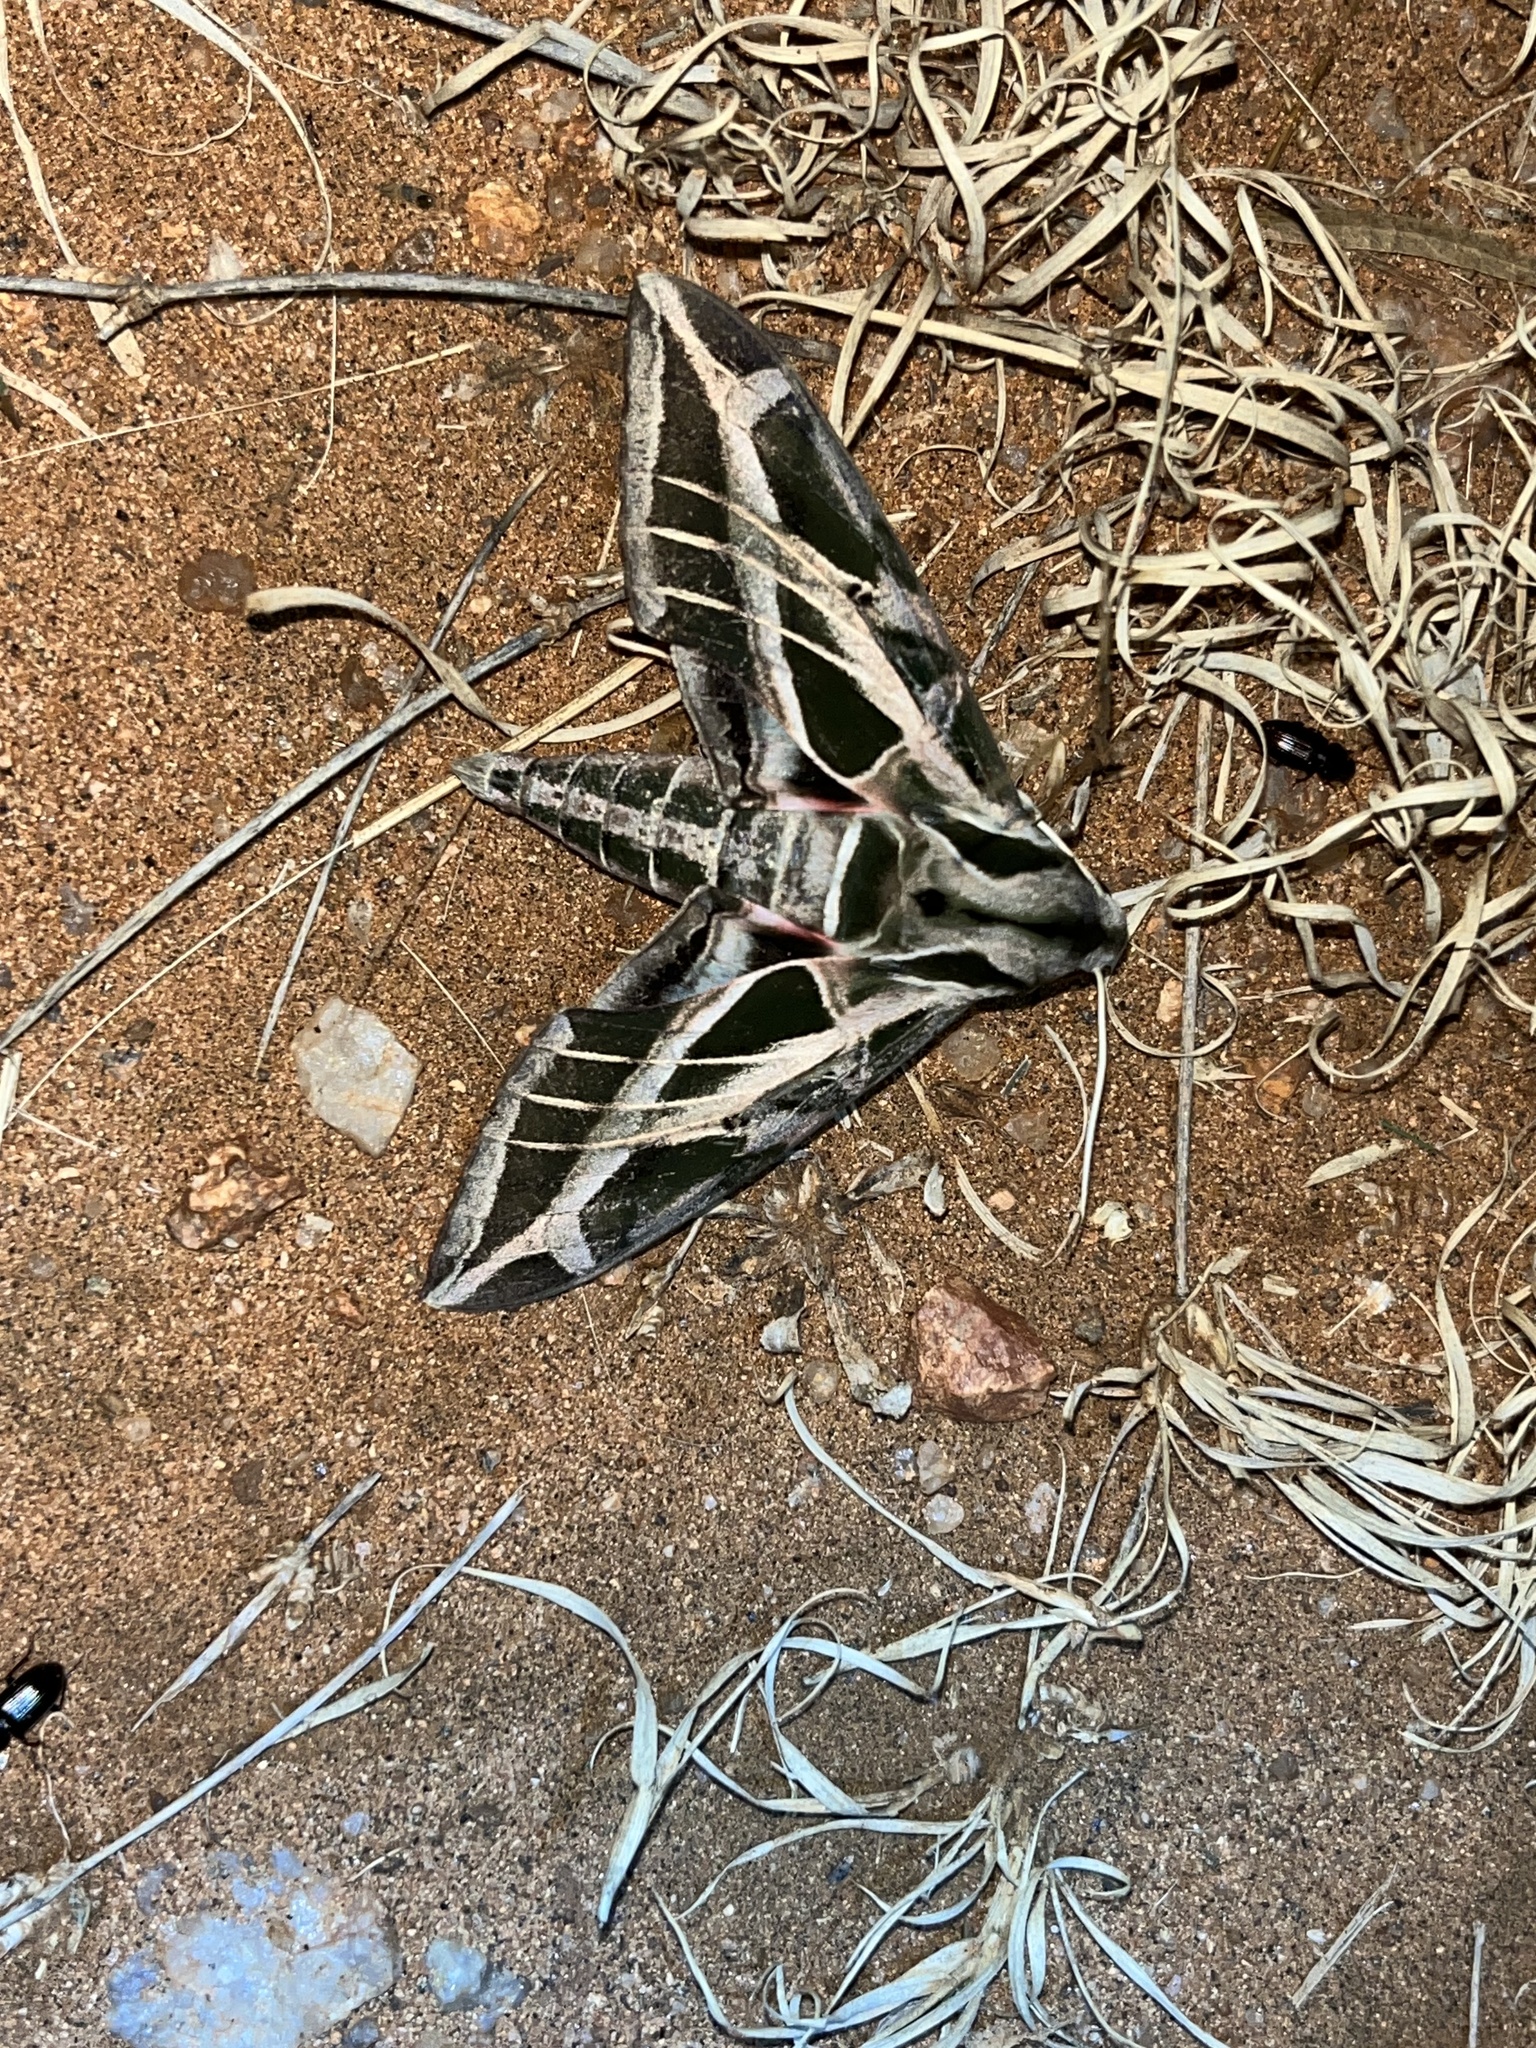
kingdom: Animalia
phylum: Arthropoda
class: Insecta
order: Lepidoptera
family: Sphingidae
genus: Eumorpha
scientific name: Eumorpha vitis
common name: Vine sphinx
